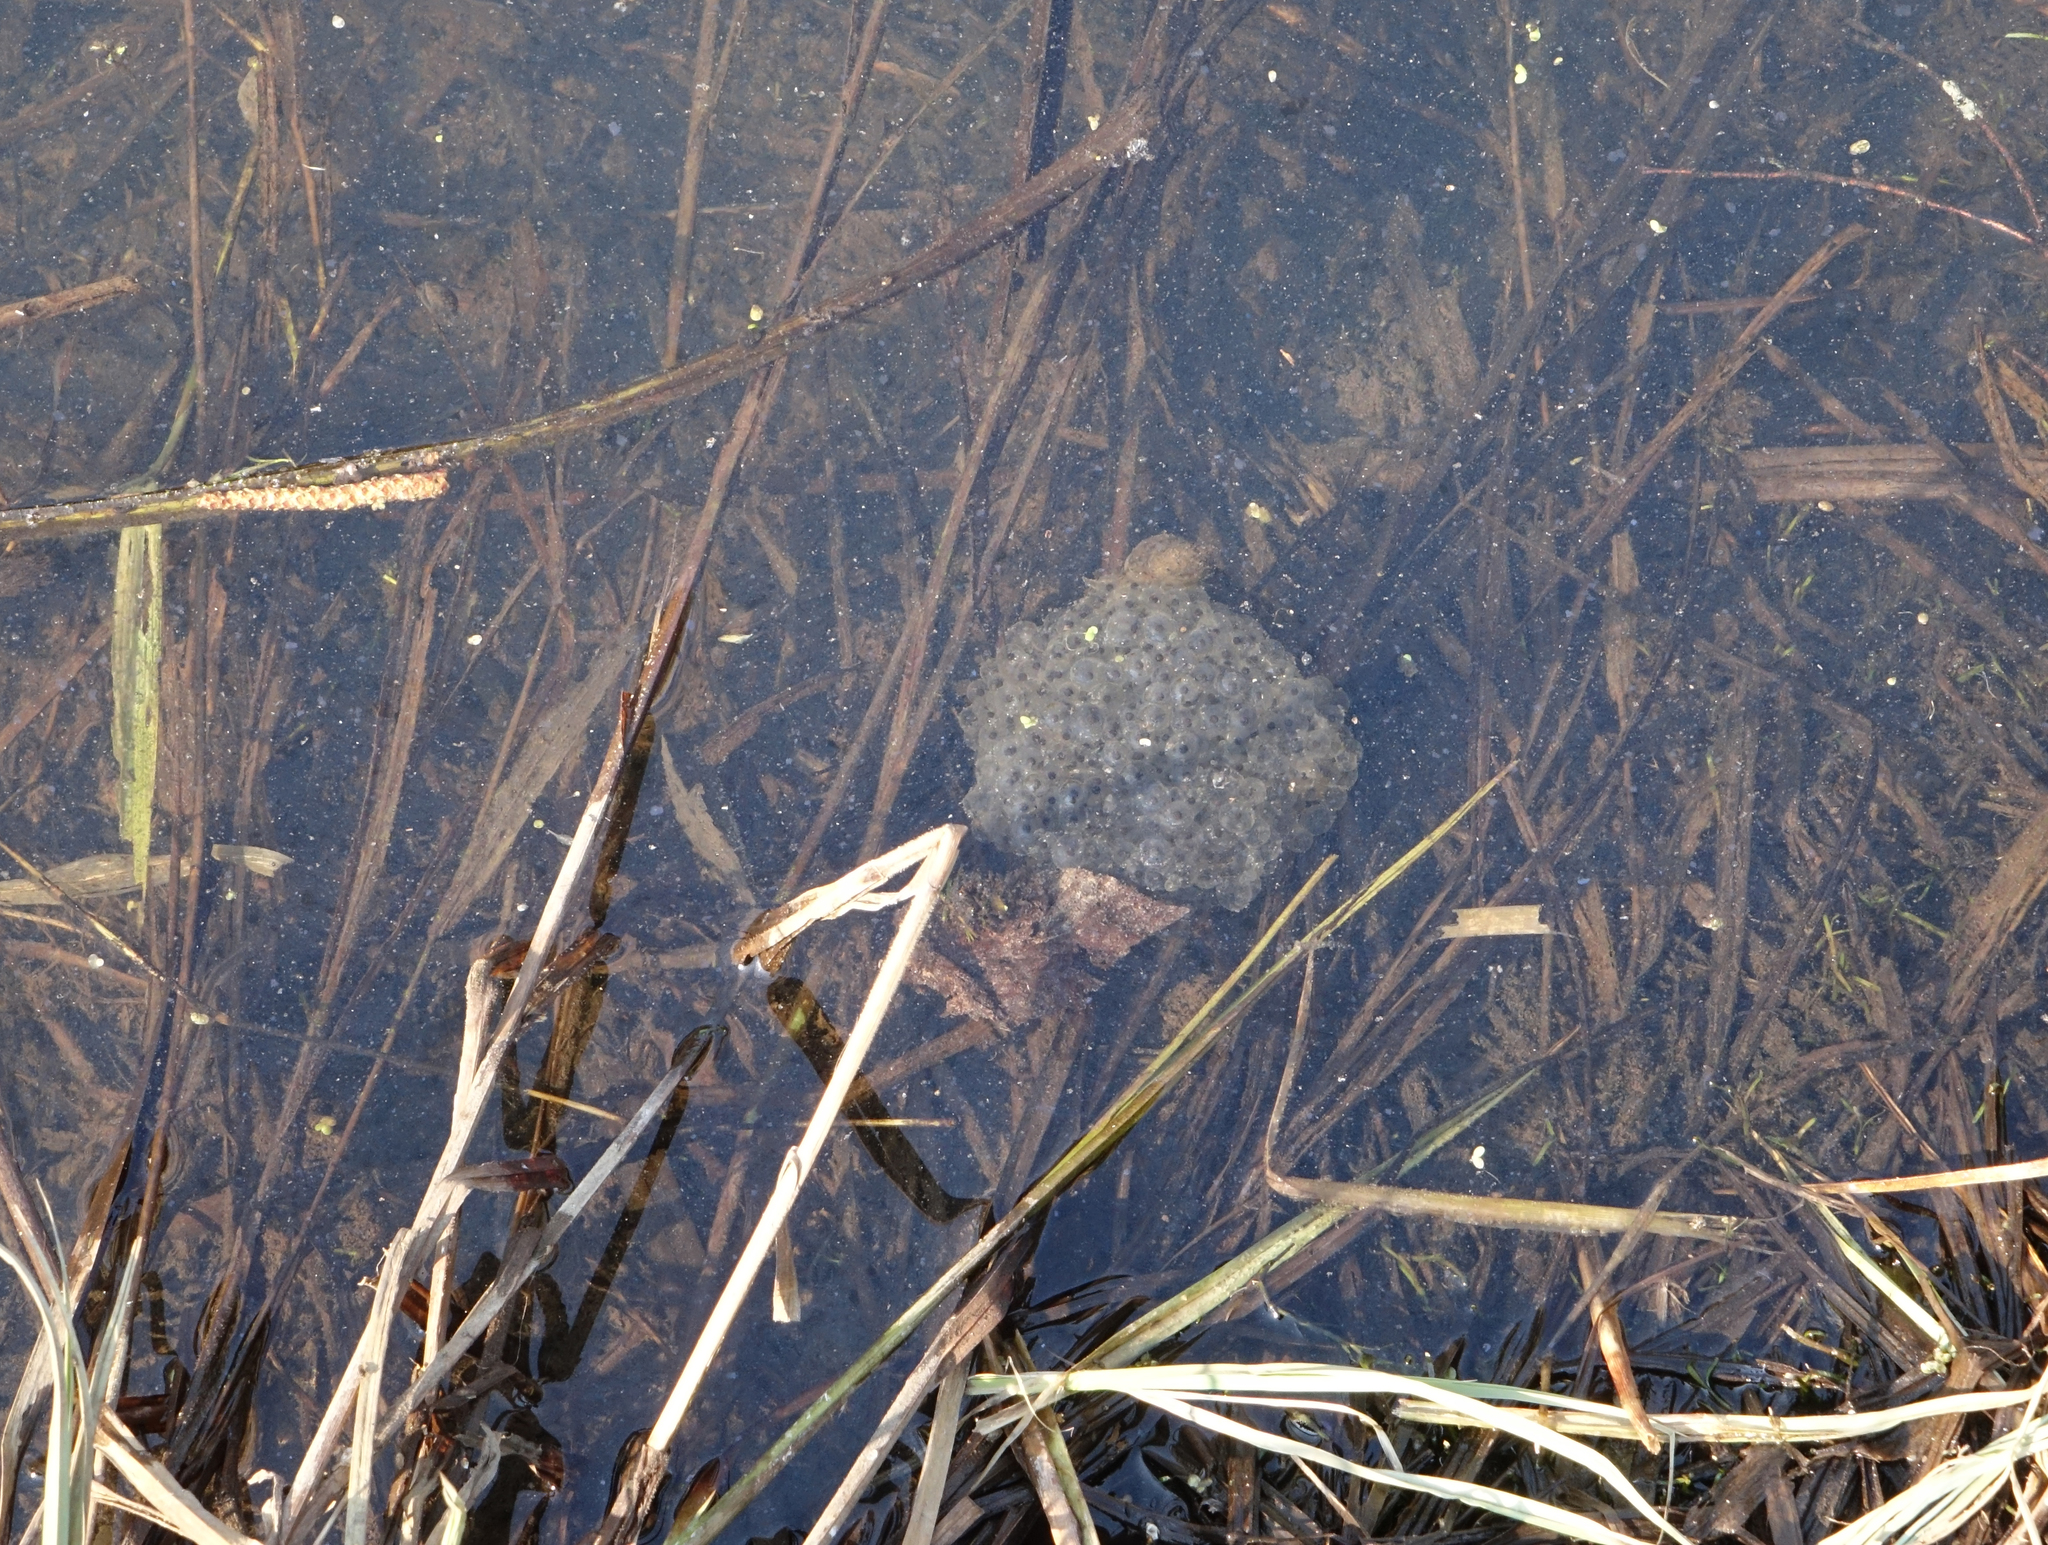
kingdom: Animalia
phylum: Chordata
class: Amphibia
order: Anura
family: Ranidae
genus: Rana
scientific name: Rana arvalis
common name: Moor frog
